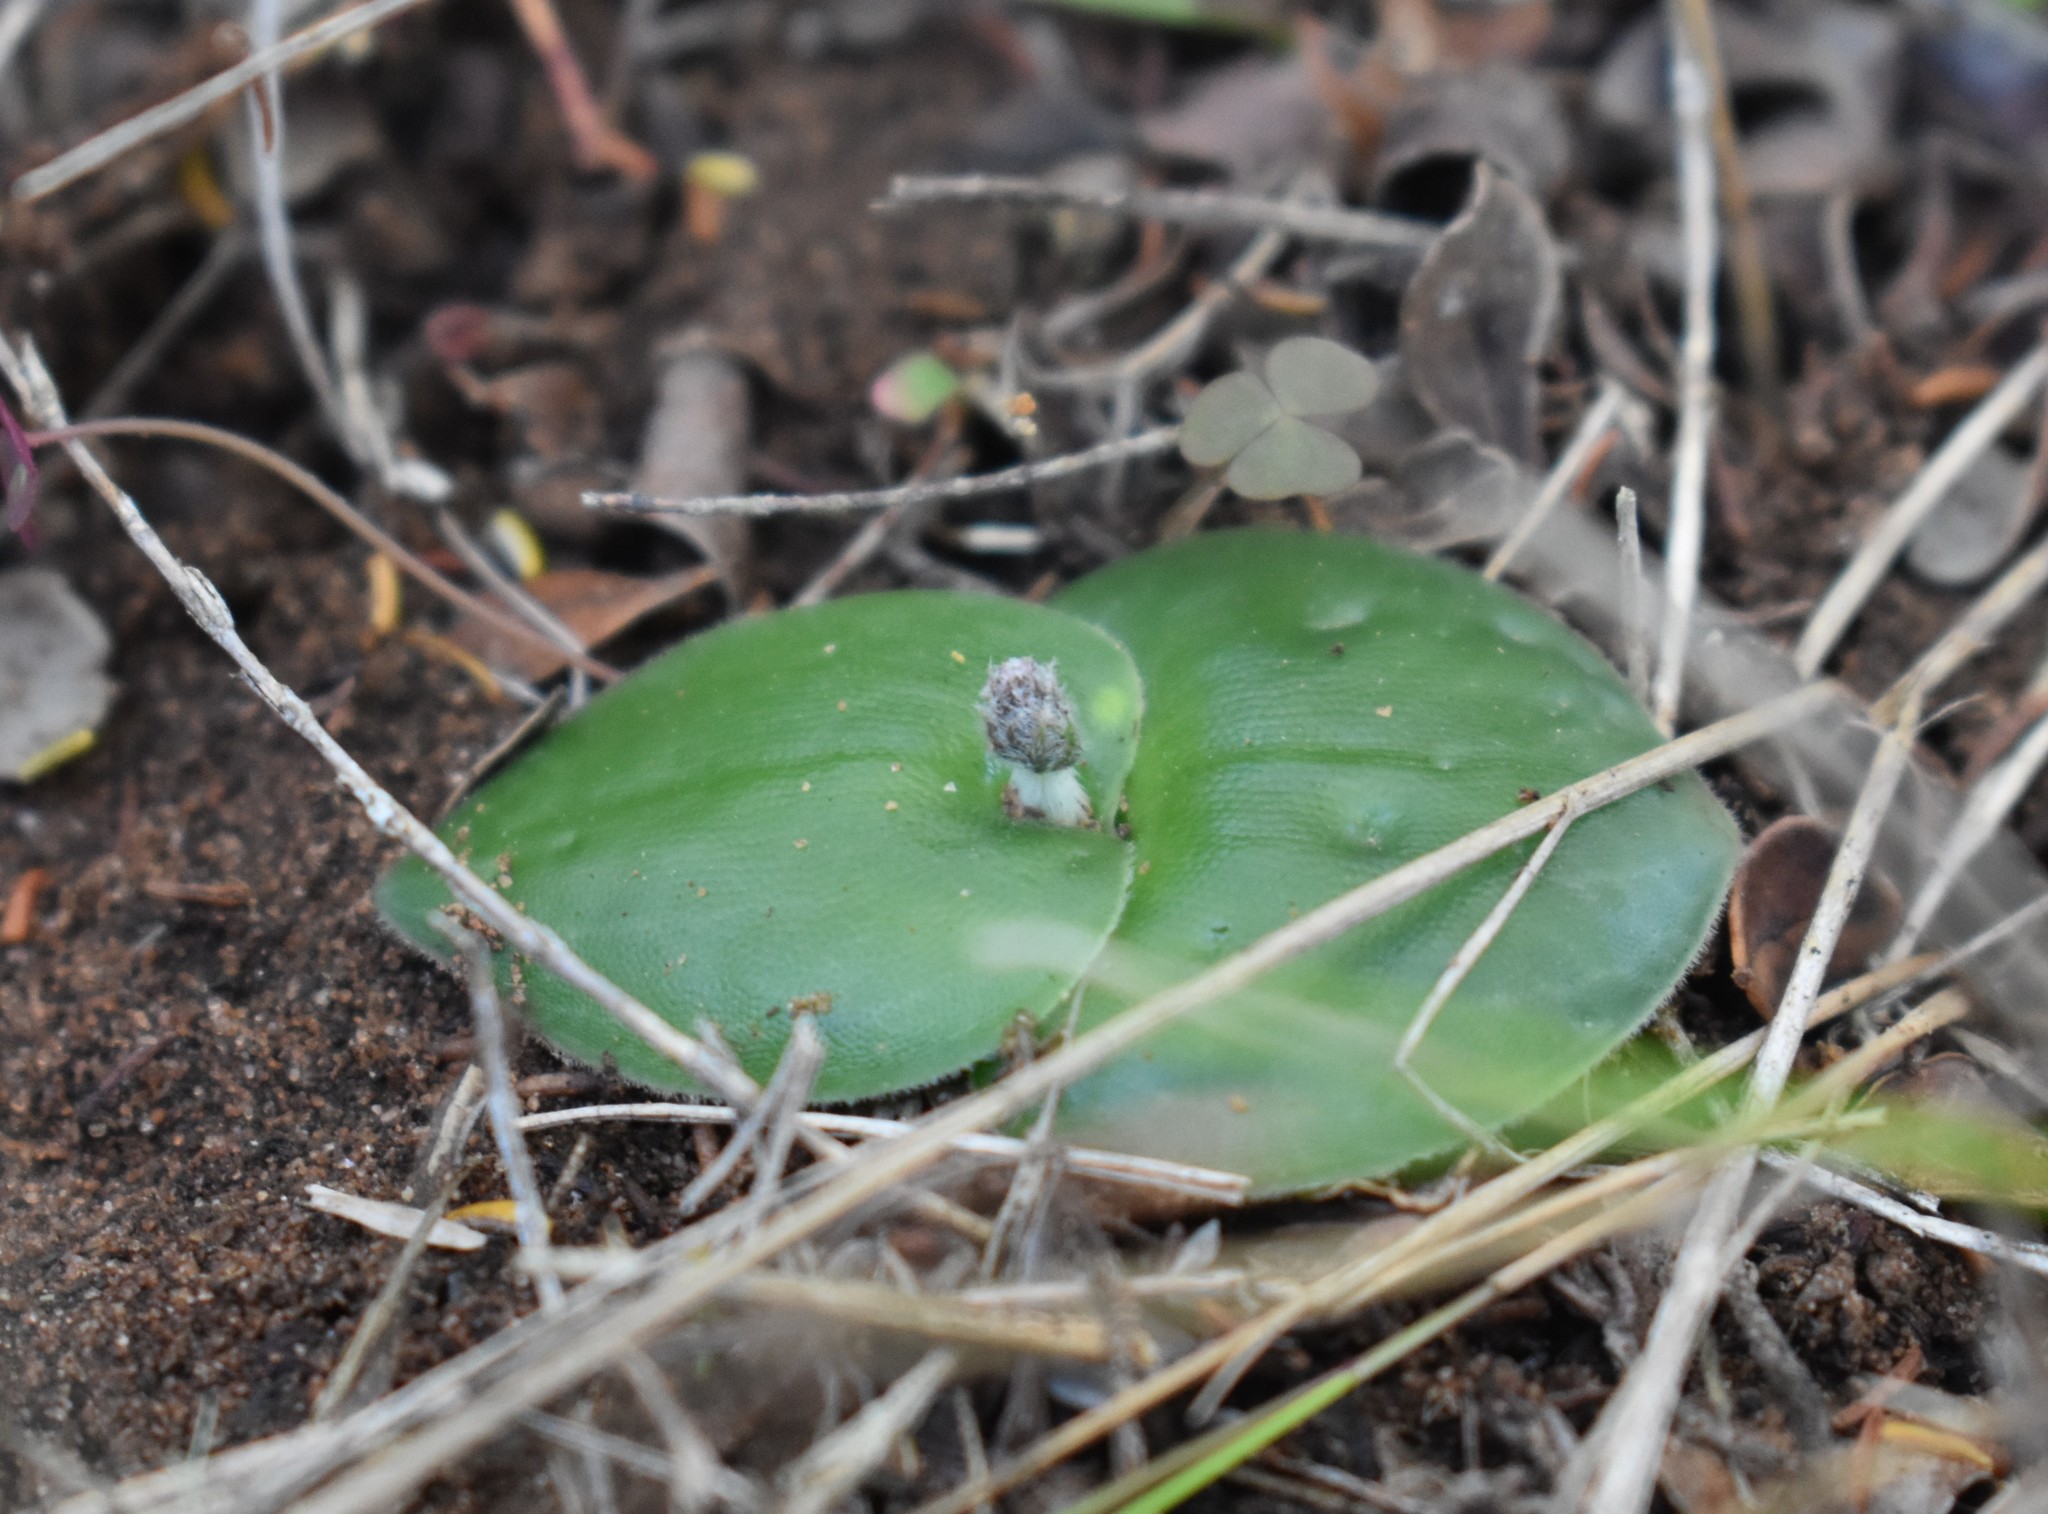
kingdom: Plantae
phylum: Tracheophyta
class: Liliopsida
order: Asparagales
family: Orchidaceae
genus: Holothrix
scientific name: Holothrix mundii
